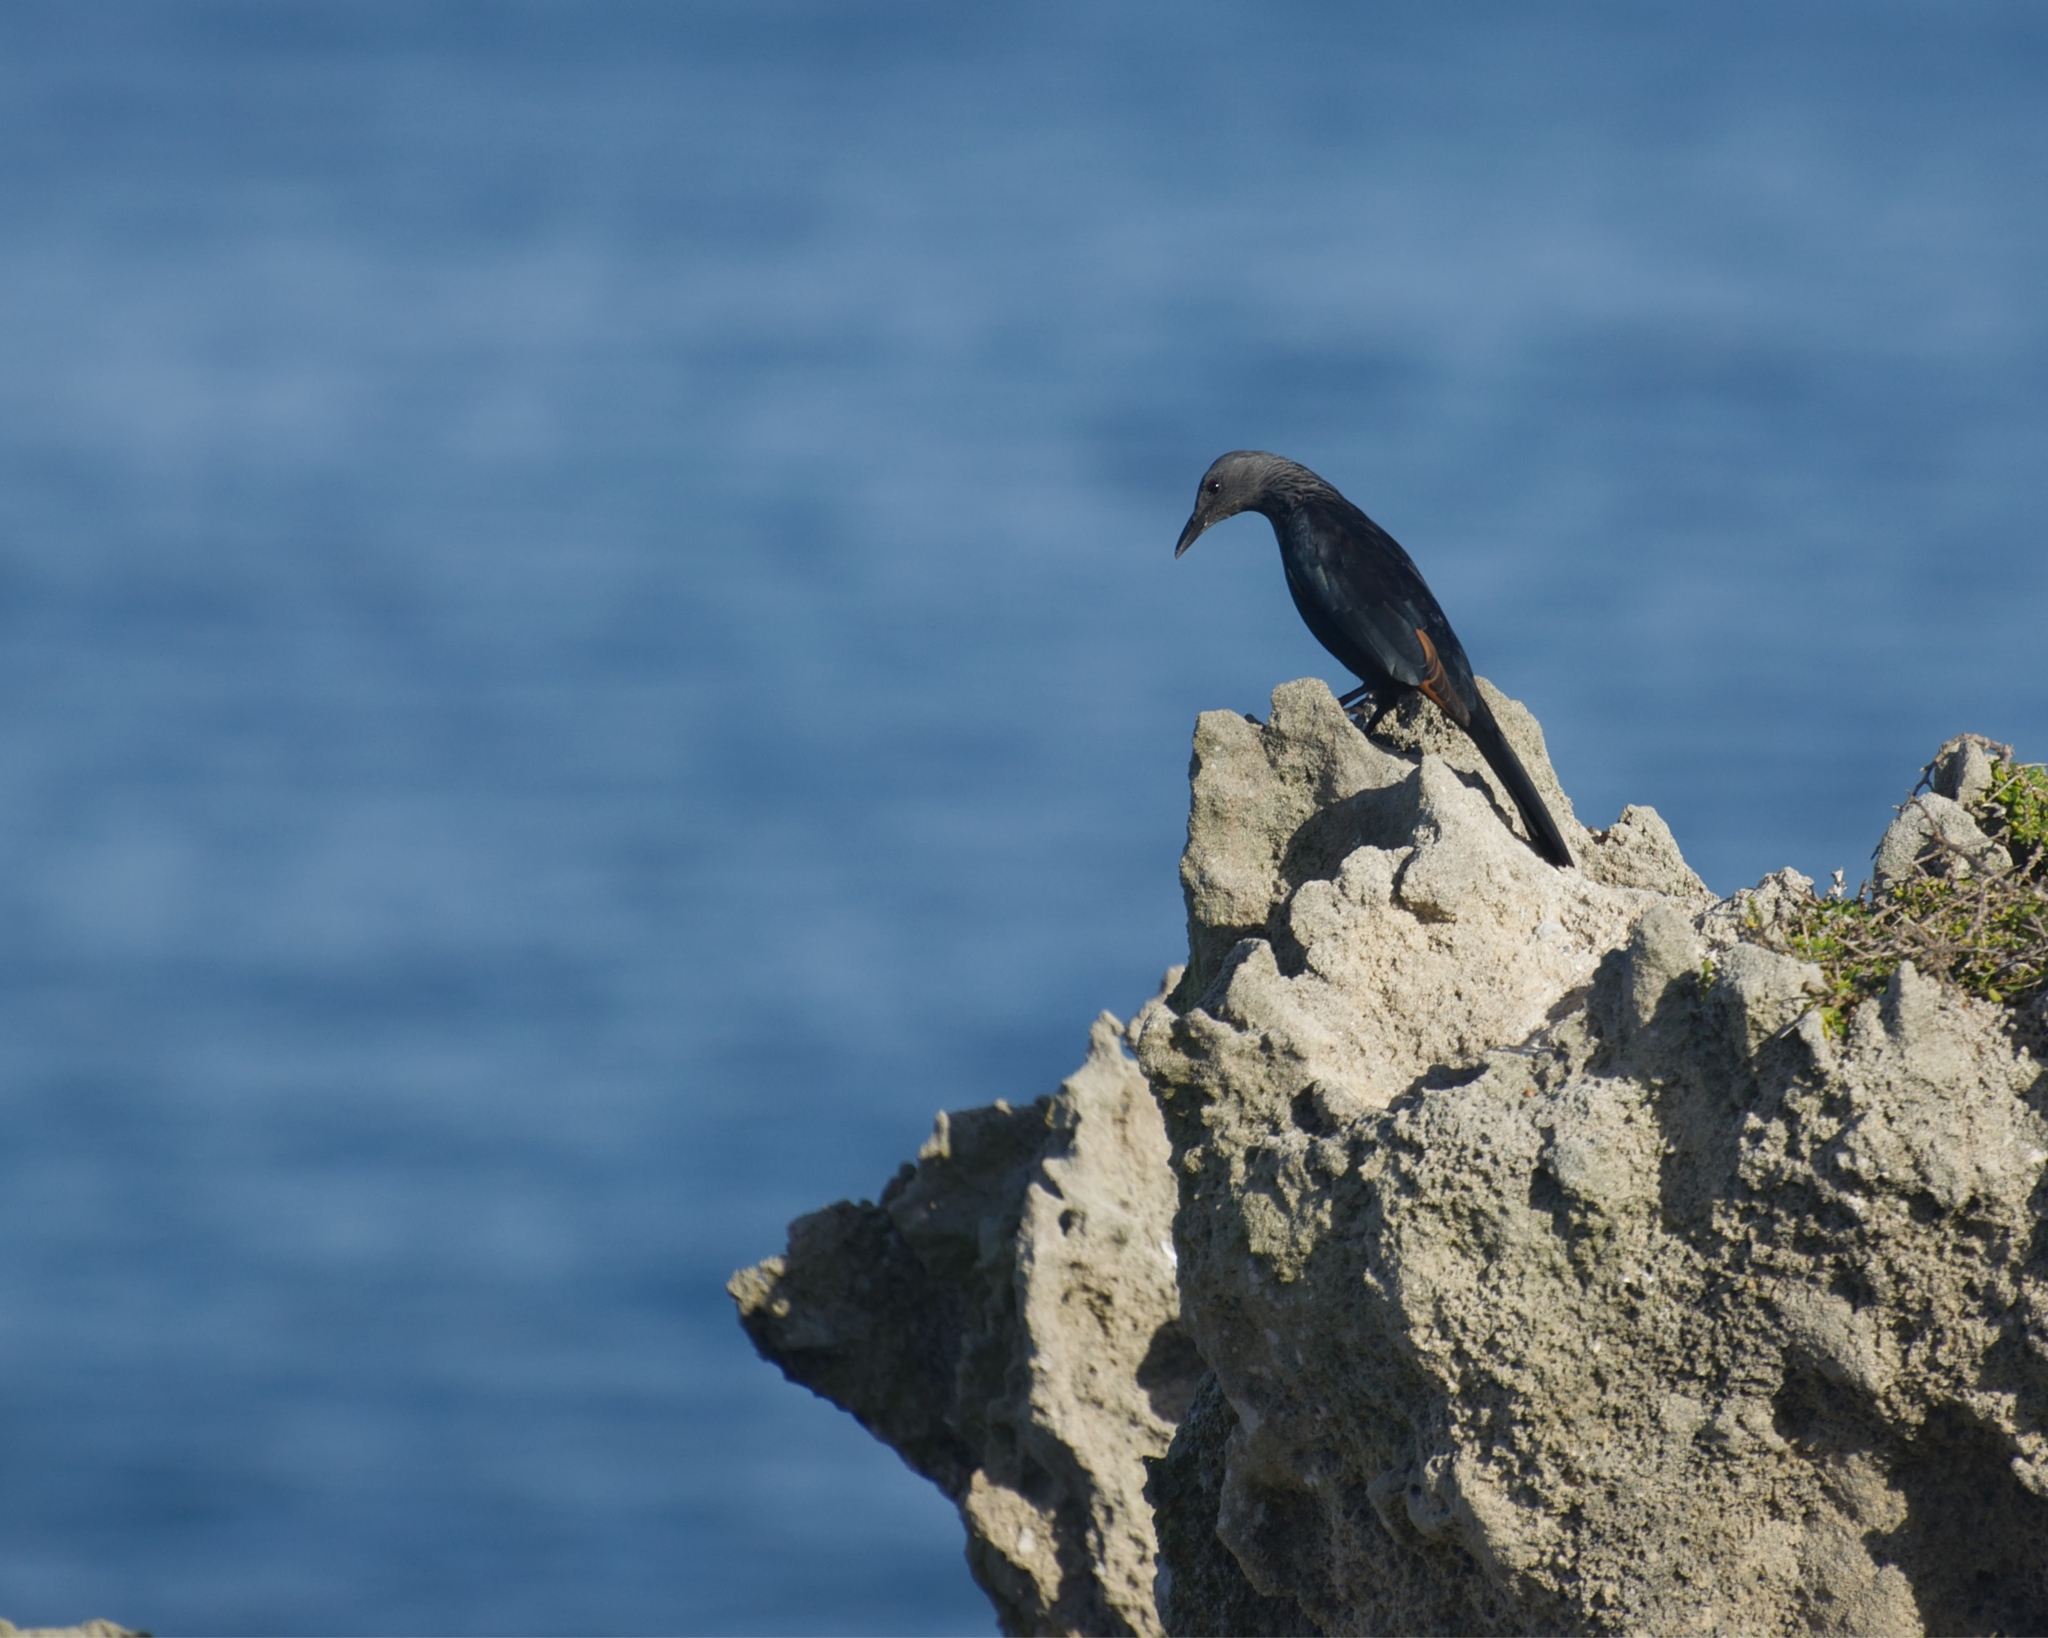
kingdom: Animalia
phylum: Chordata
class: Aves
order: Passeriformes
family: Sturnidae
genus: Onychognathus
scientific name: Onychognathus morio
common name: Red-winged starling
